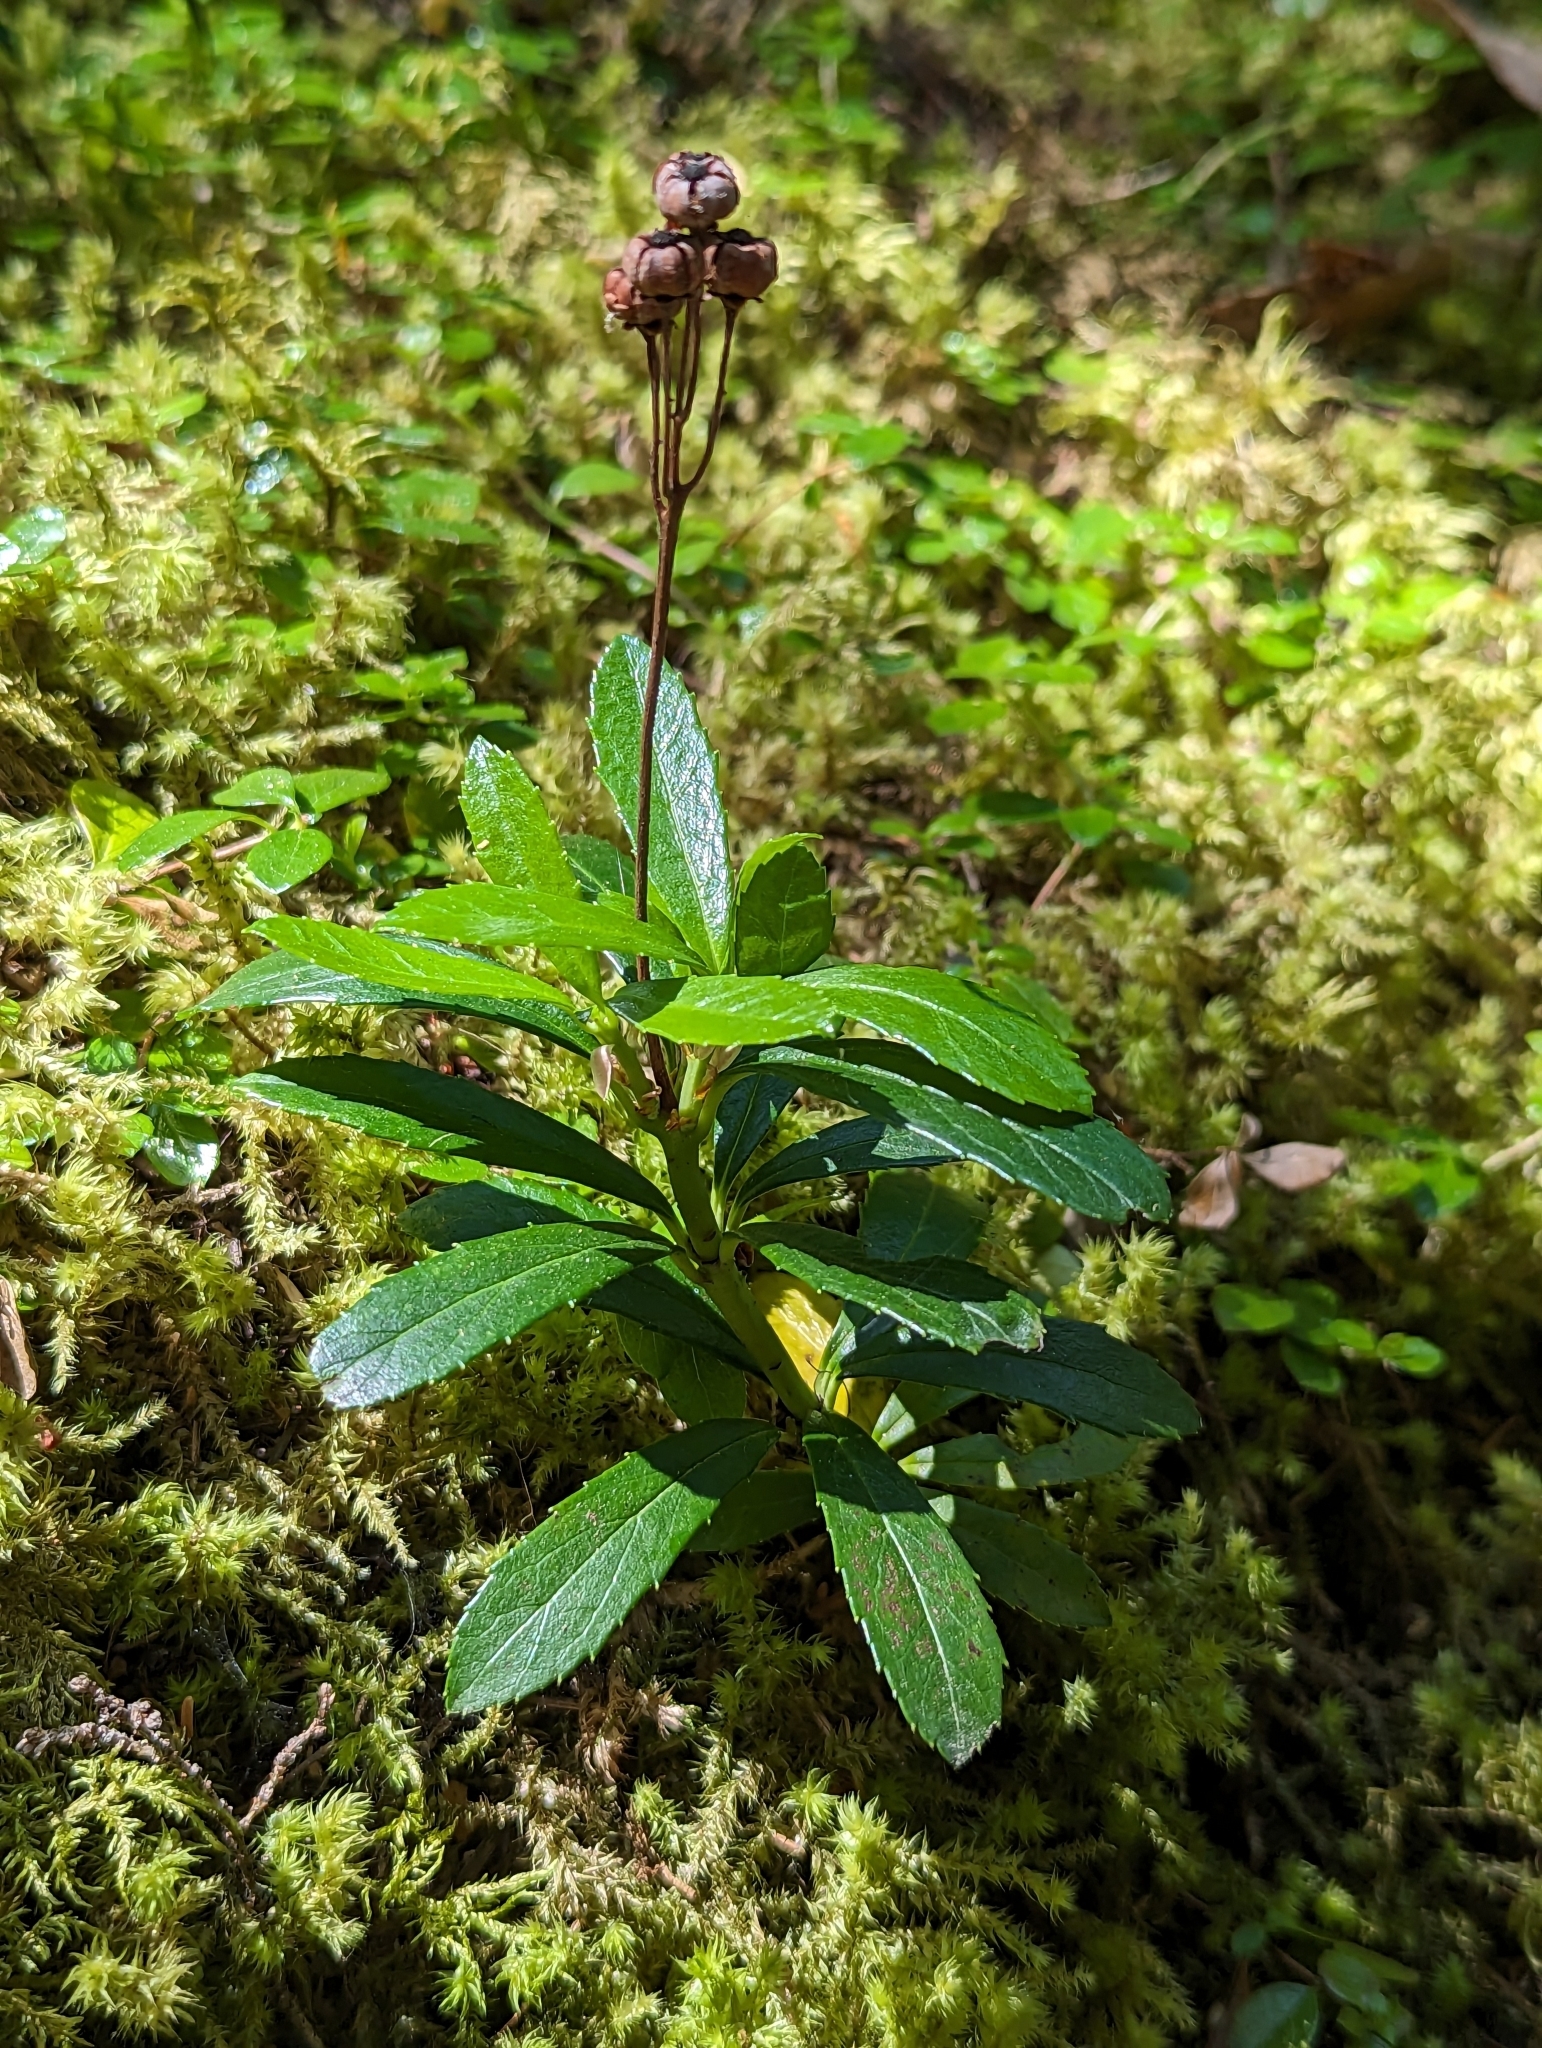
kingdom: Plantae
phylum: Tracheophyta
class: Magnoliopsida
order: Ericales
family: Ericaceae
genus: Chimaphila
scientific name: Chimaphila umbellata
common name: Pipsissewa
